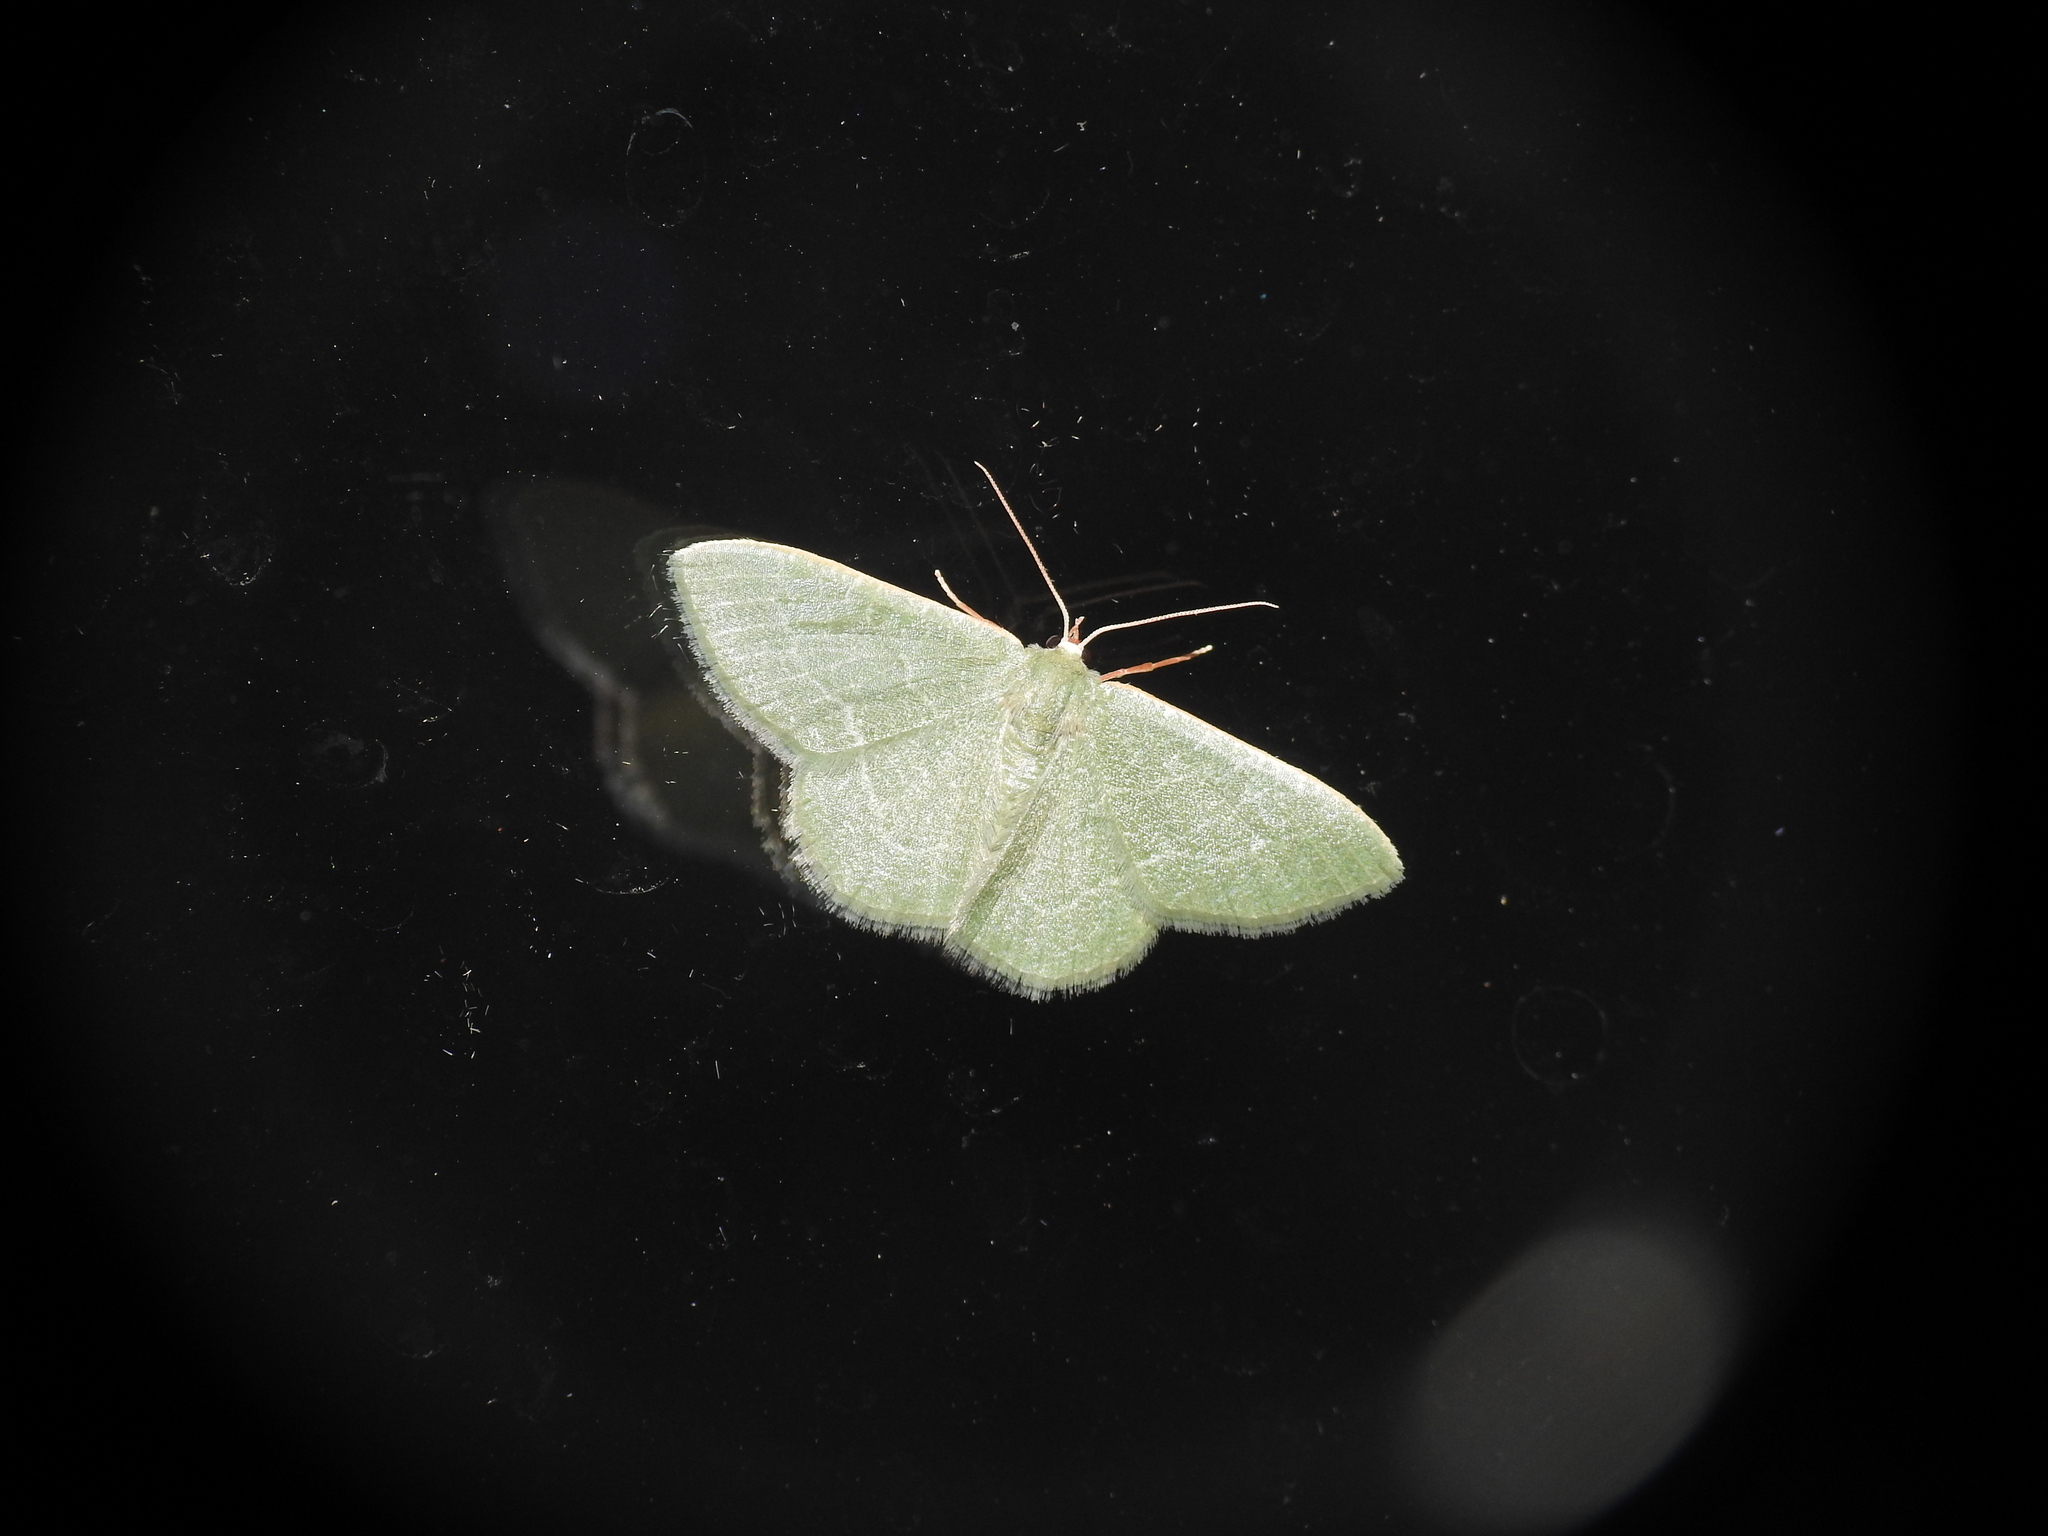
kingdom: Animalia
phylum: Arthropoda
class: Insecta
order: Lepidoptera
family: Geometridae
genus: Chlorissa
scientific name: Chlorissa etruscaria
